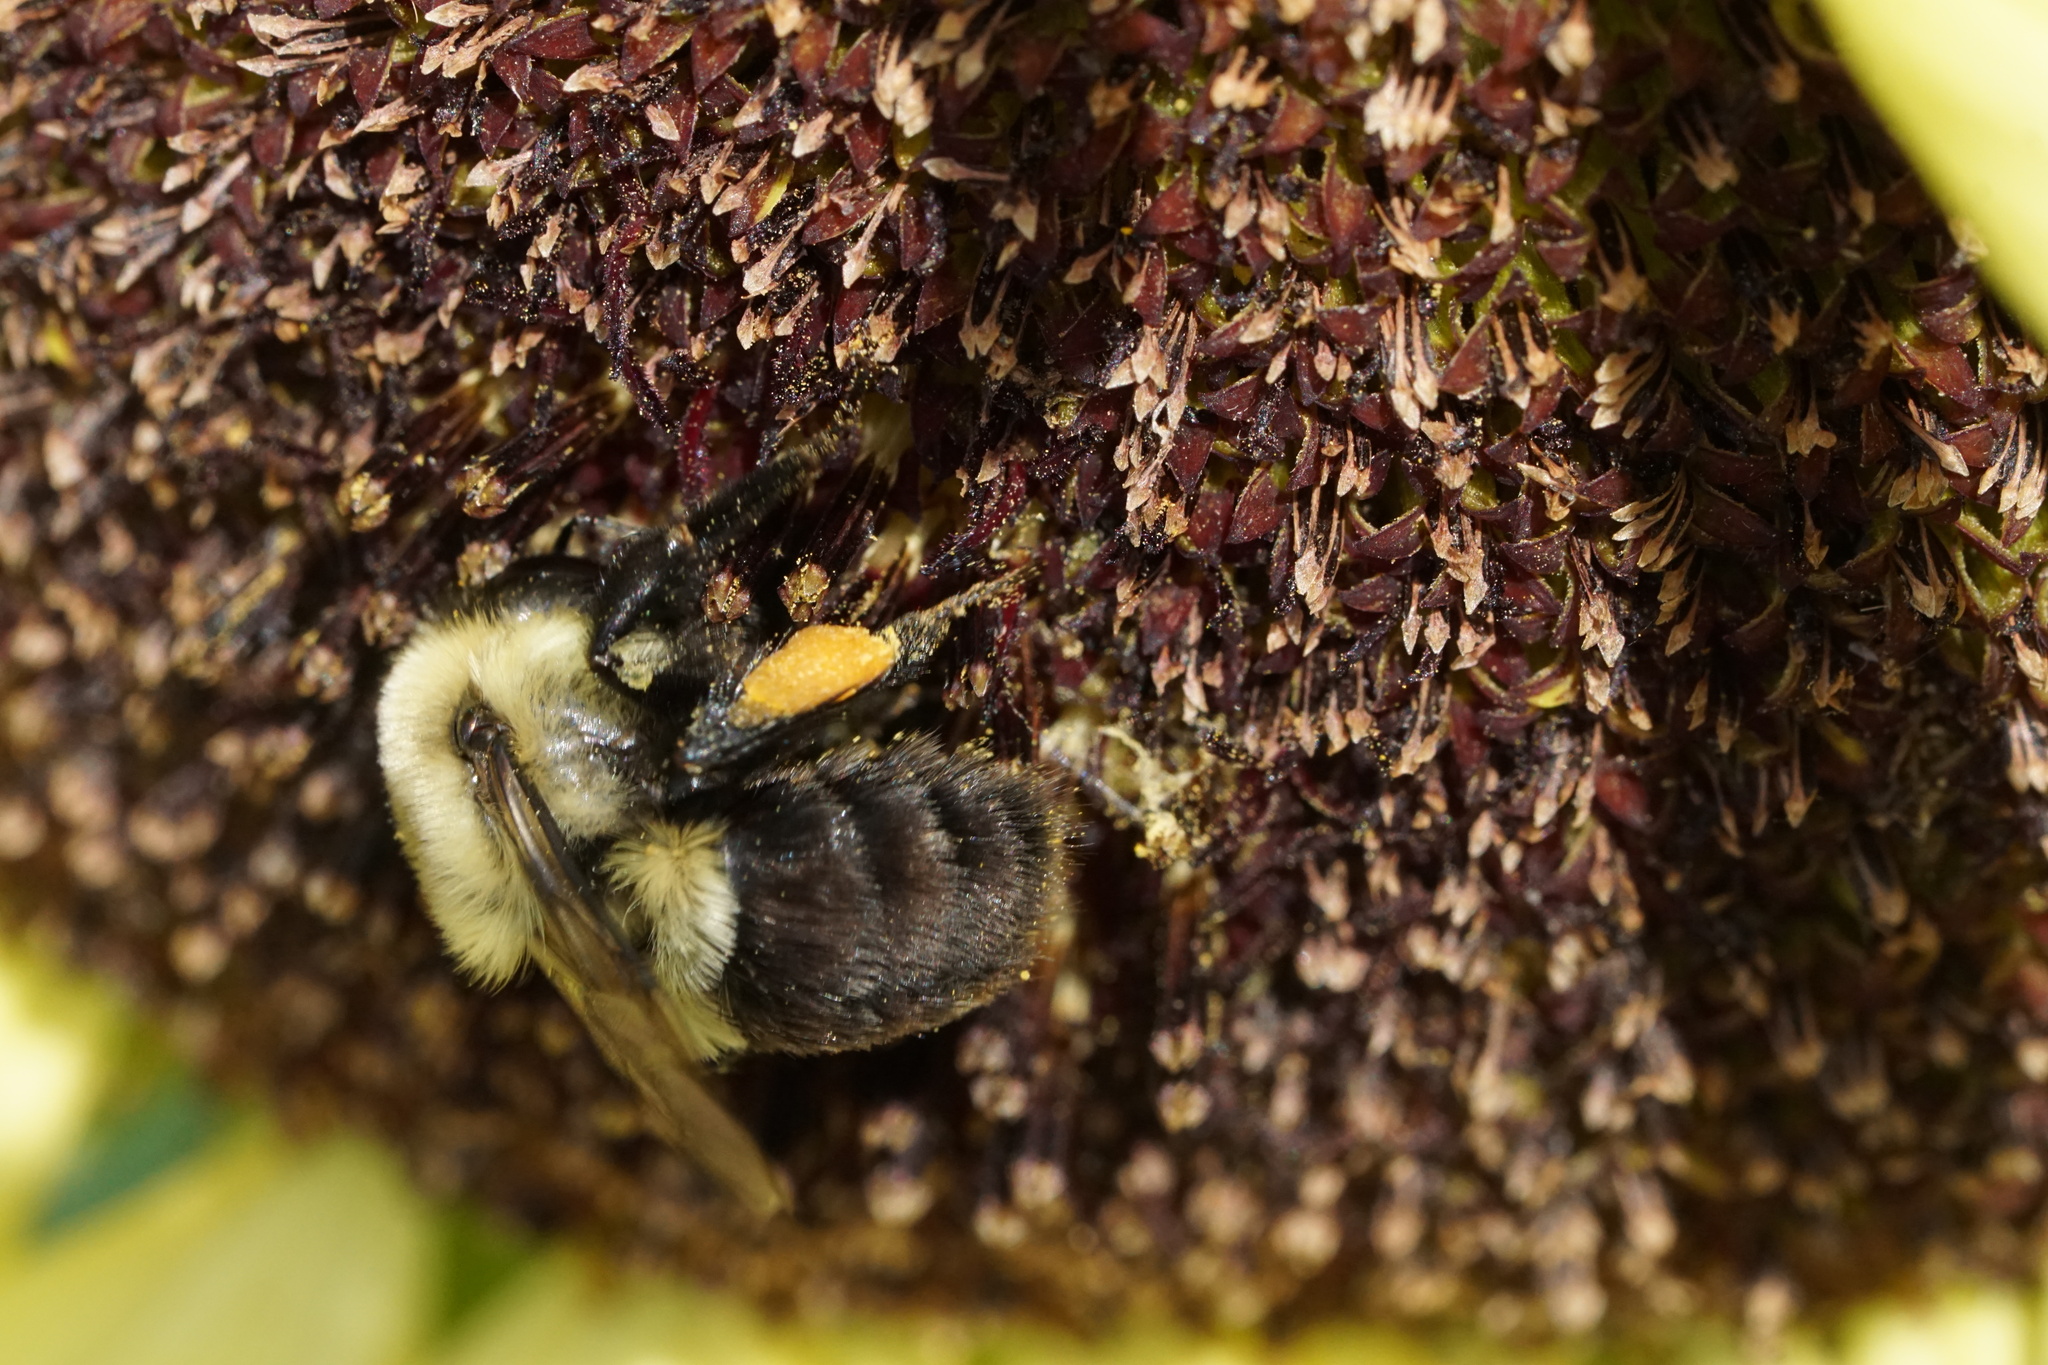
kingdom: Animalia
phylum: Arthropoda
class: Insecta
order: Hymenoptera
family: Apidae
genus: Bombus
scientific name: Bombus impatiens
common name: Common eastern bumble bee
